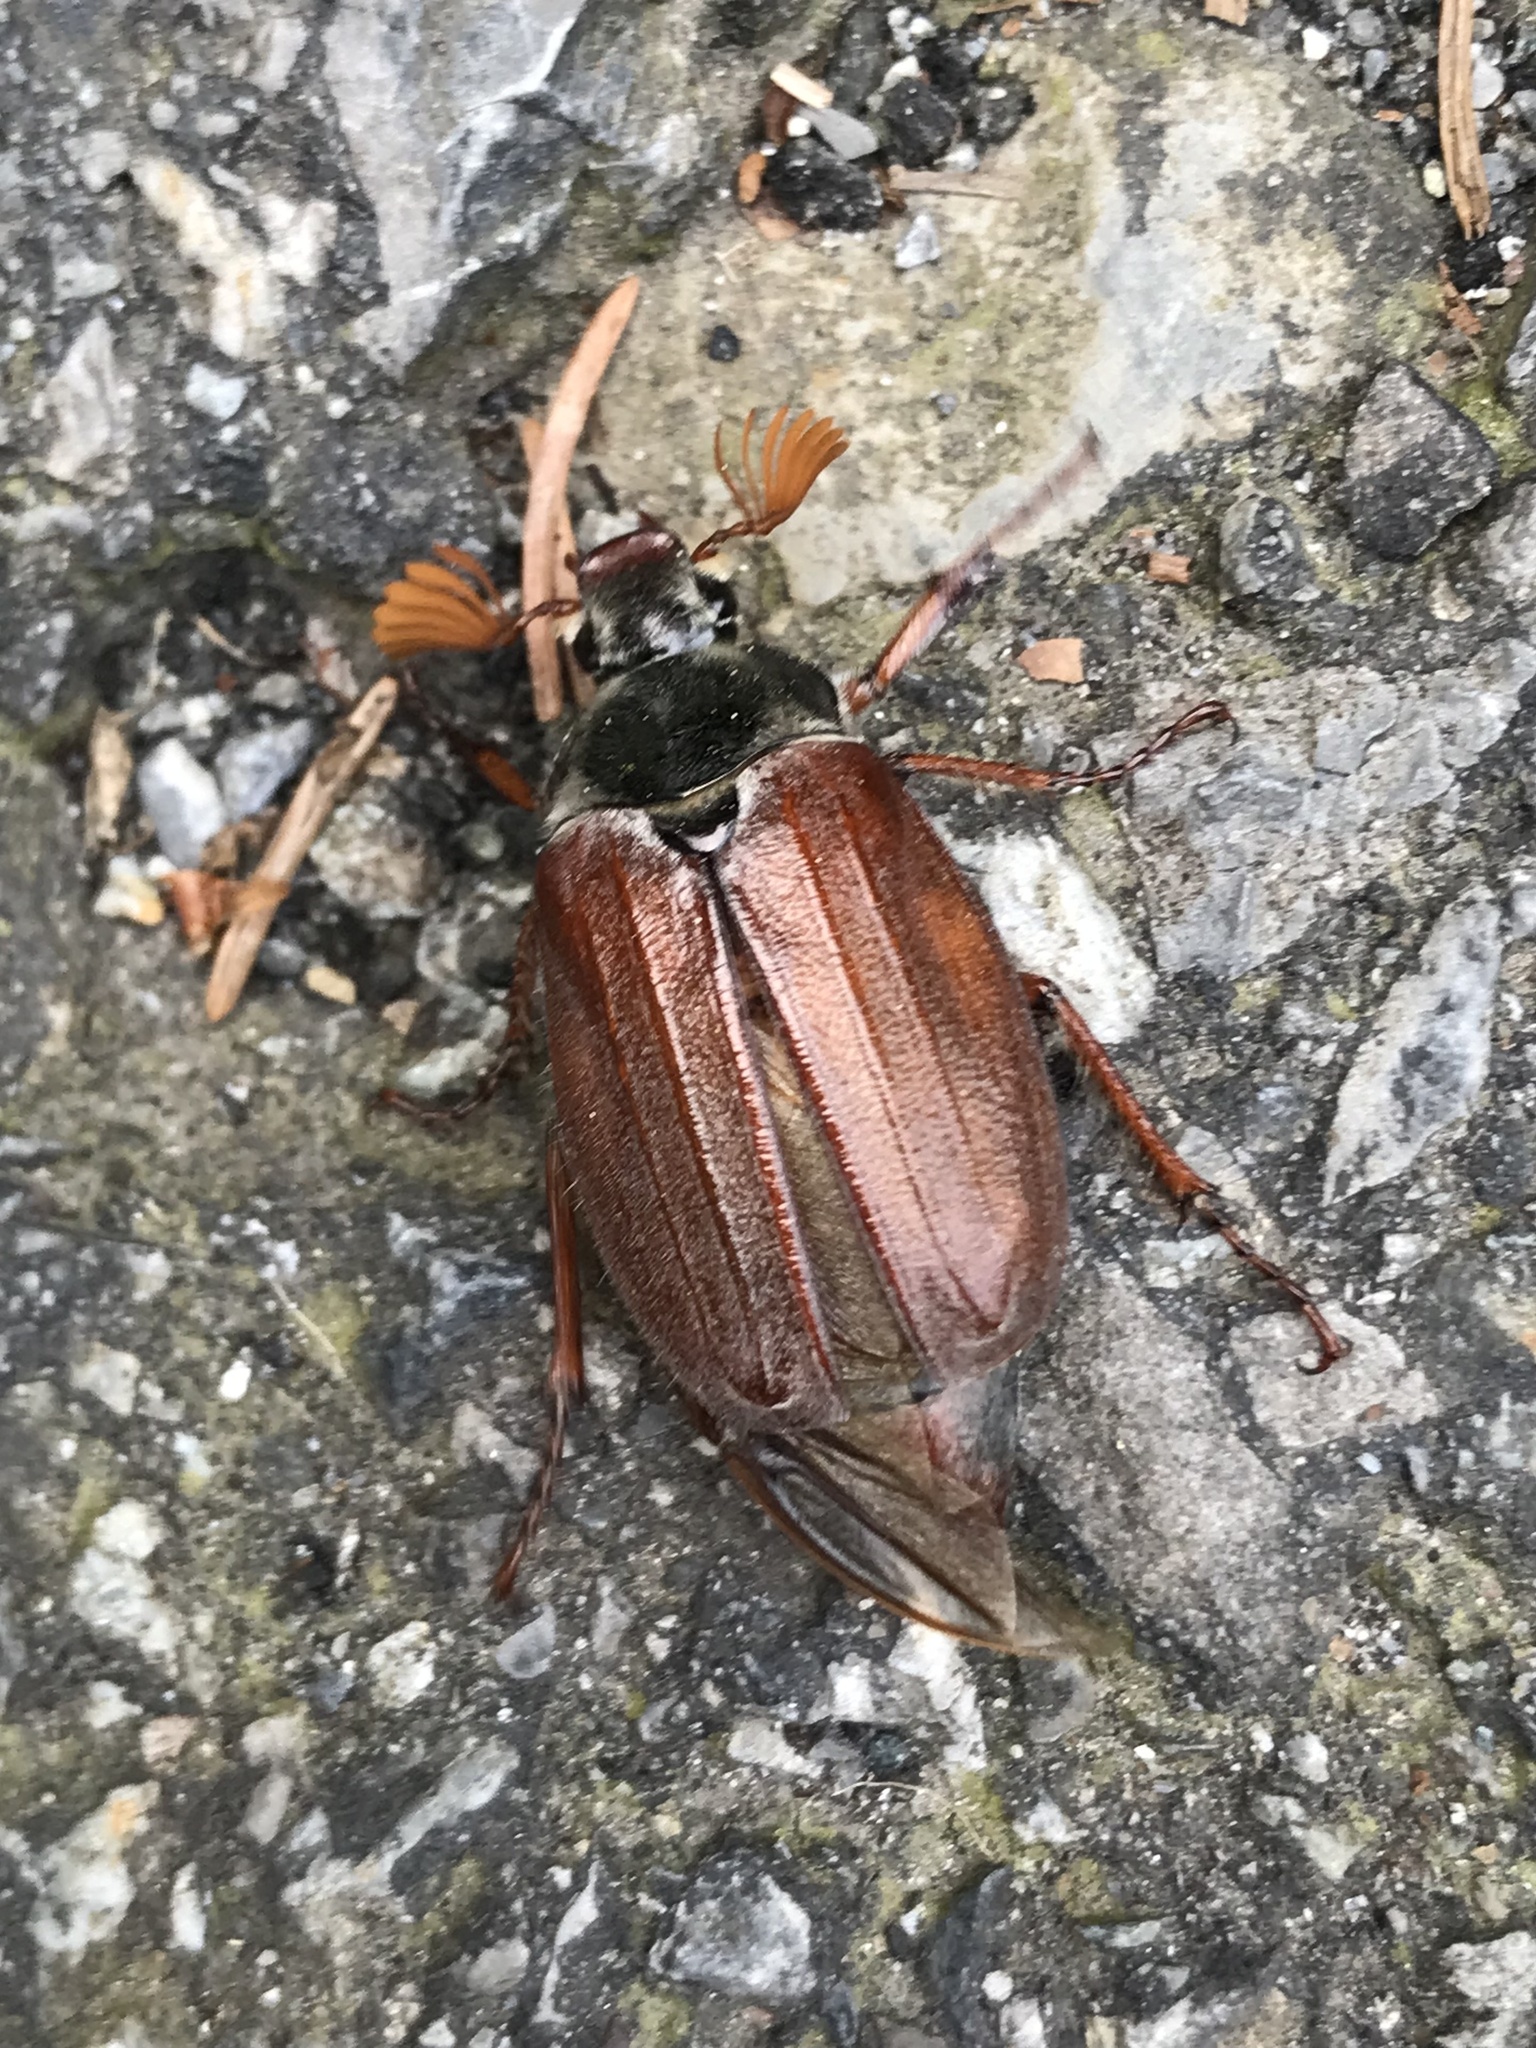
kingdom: Animalia
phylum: Arthropoda
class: Insecta
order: Coleoptera
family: Scarabaeidae
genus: Melolontha
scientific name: Melolontha melolontha
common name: Cockchafer maybeetle
